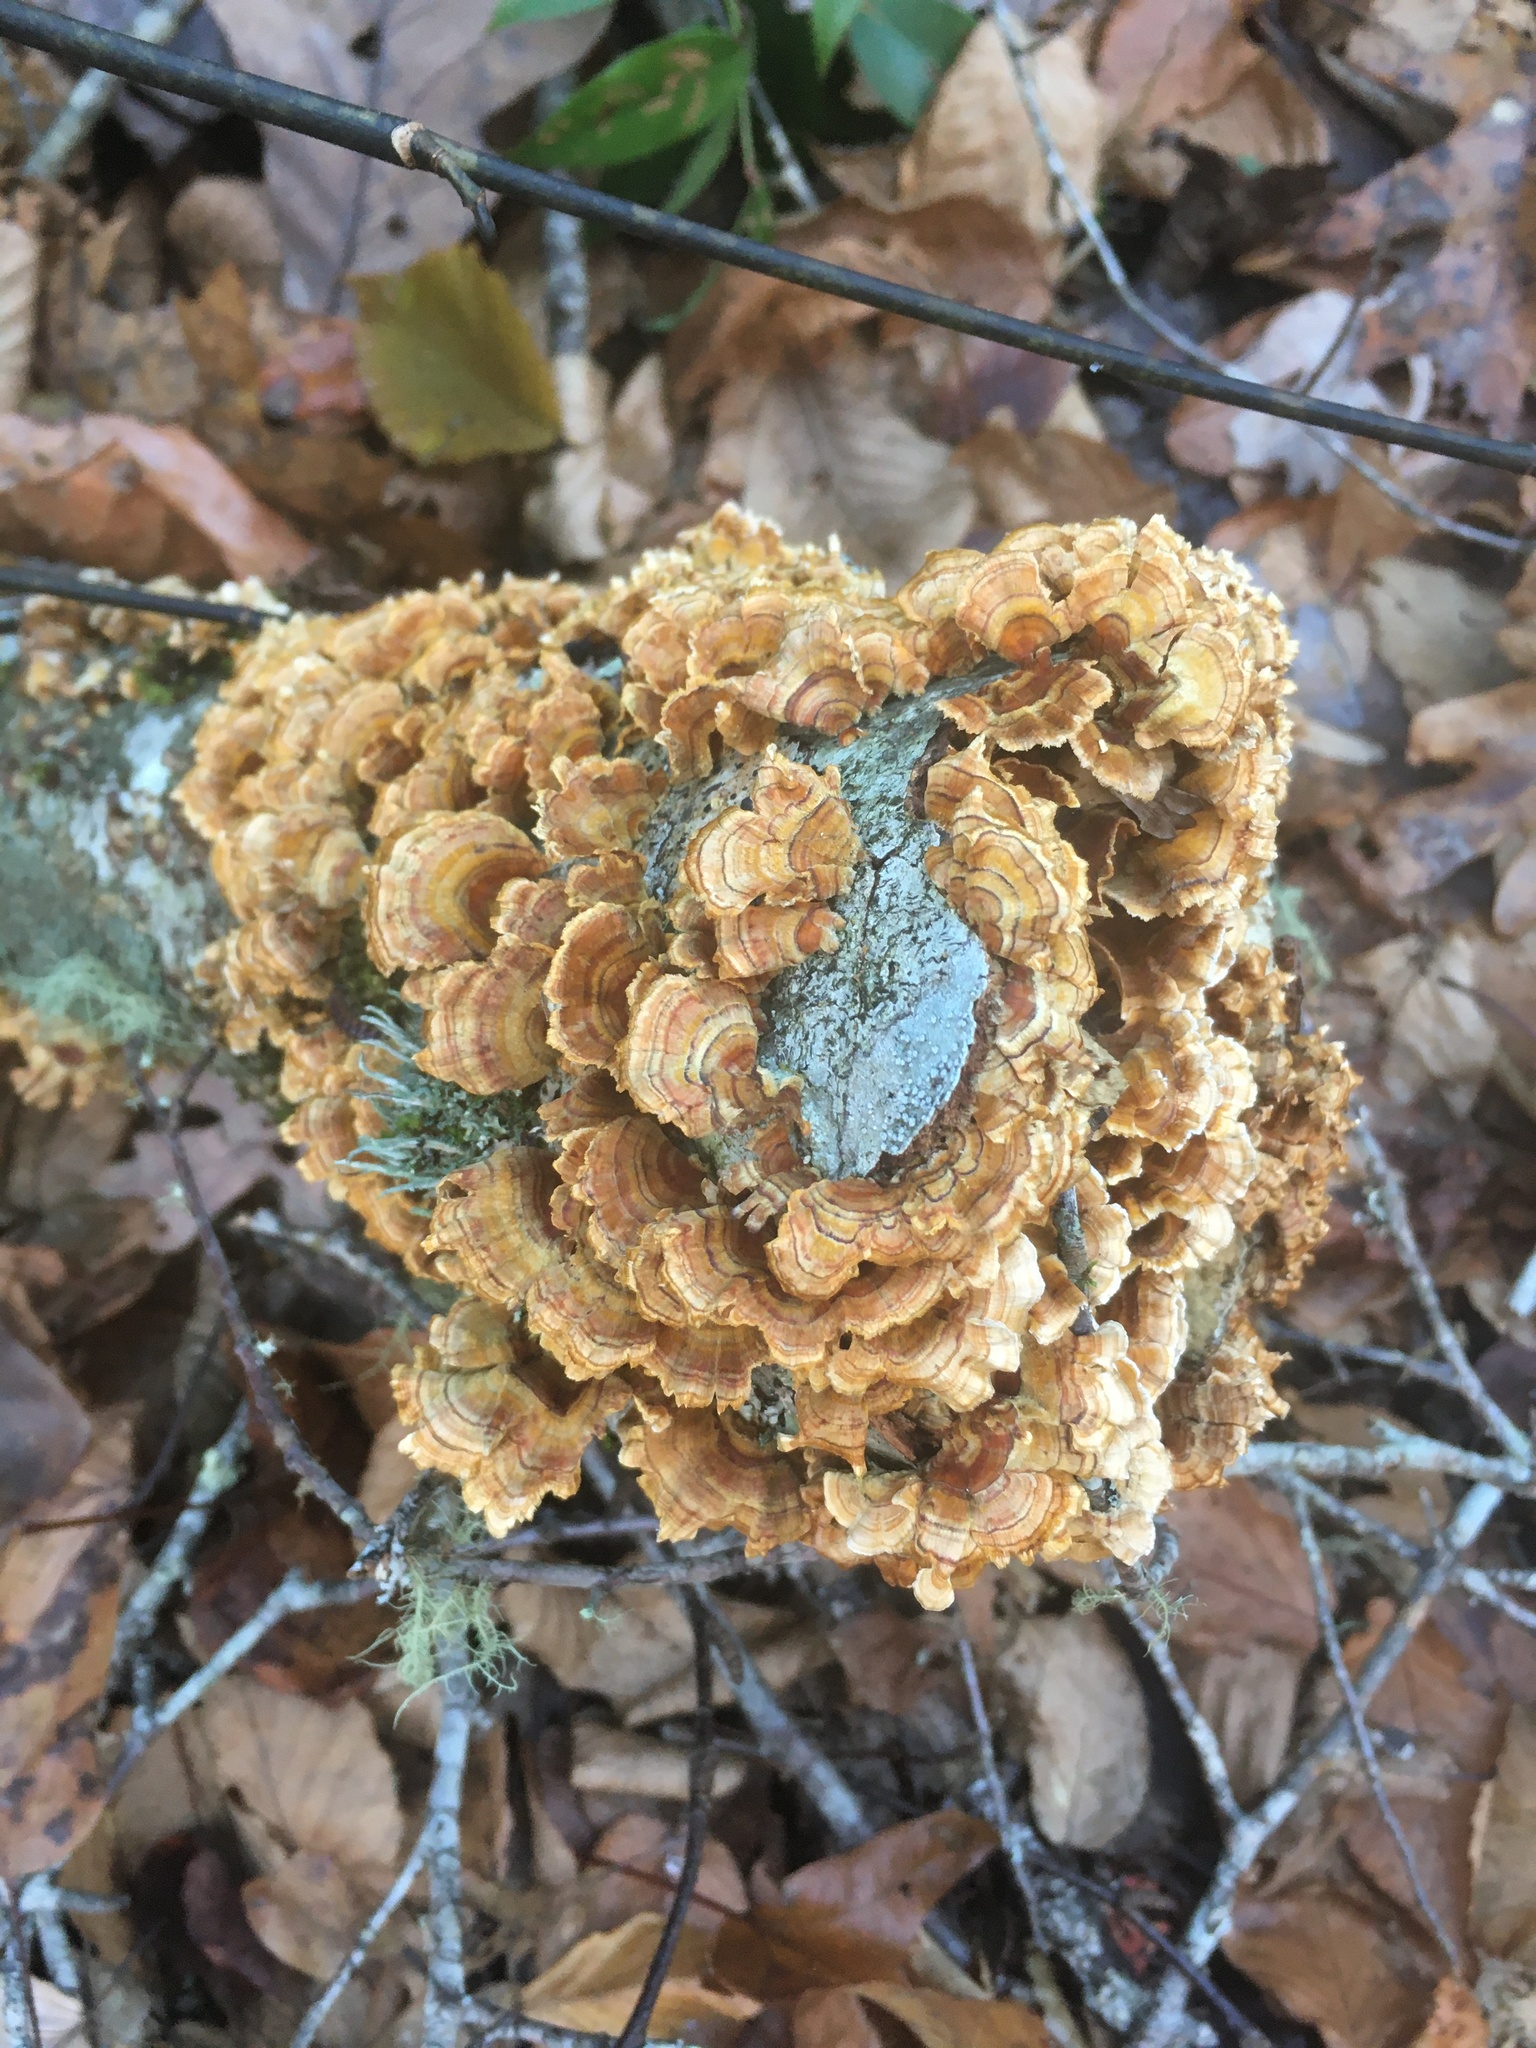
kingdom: Fungi
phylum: Basidiomycota
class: Agaricomycetes
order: Russulales
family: Stereaceae
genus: Stereum
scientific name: Stereum complicatum
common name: Crowded parchment
